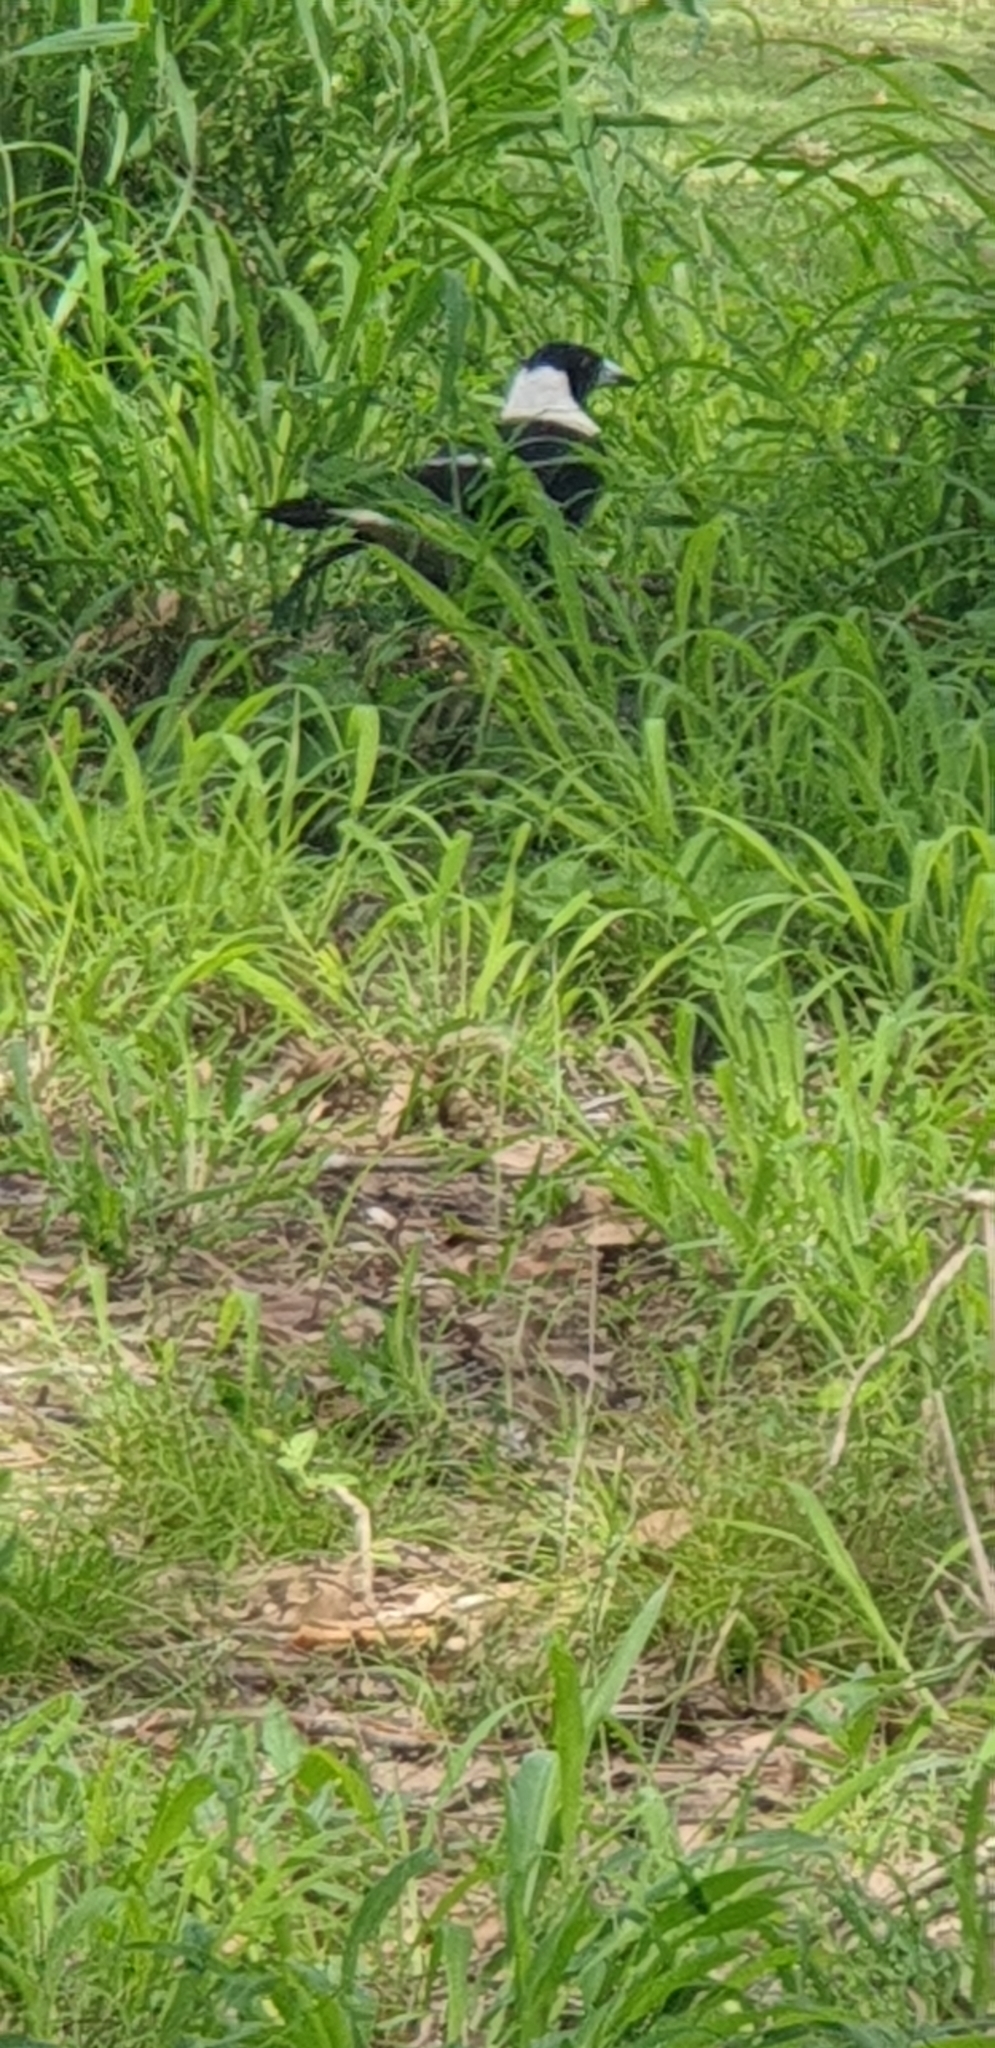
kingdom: Animalia
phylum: Chordata
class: Aves
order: Passeriformes
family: Cracticidae
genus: Gymnorhina
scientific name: Gymnorhina tibicen
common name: Australian magpie
